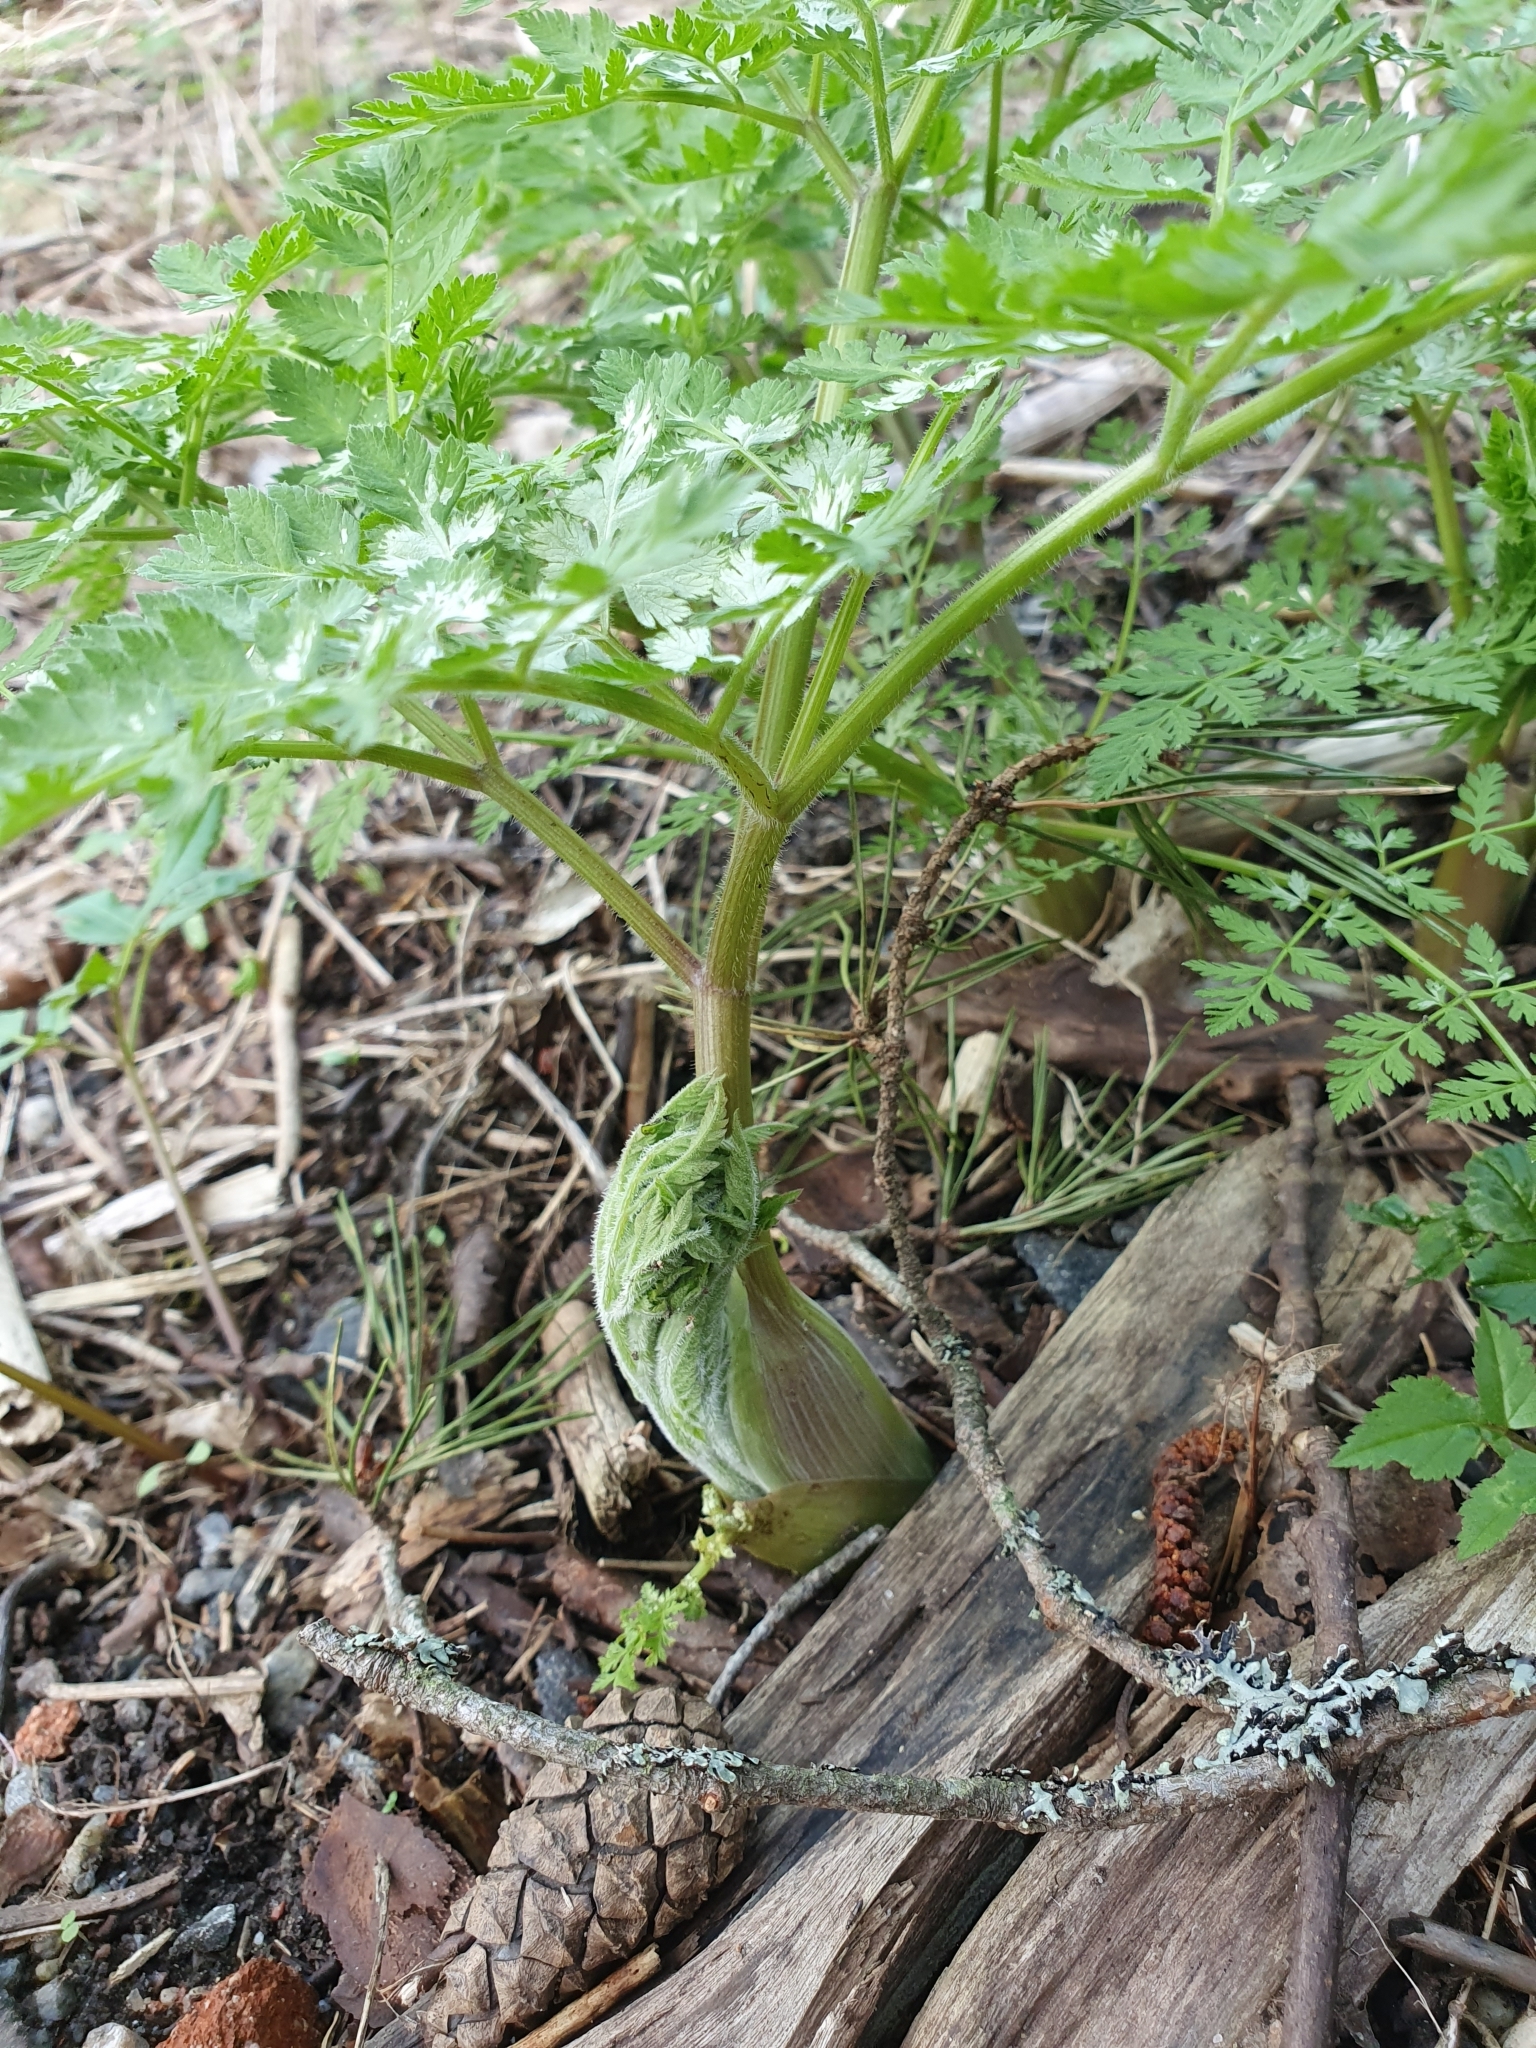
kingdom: Plantae
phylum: Tracheophyta
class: Magnoliopsida
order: Apiales
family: Apiaceae
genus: Myrrhis
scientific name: Myrrhis odorata
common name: Sweet cicely
